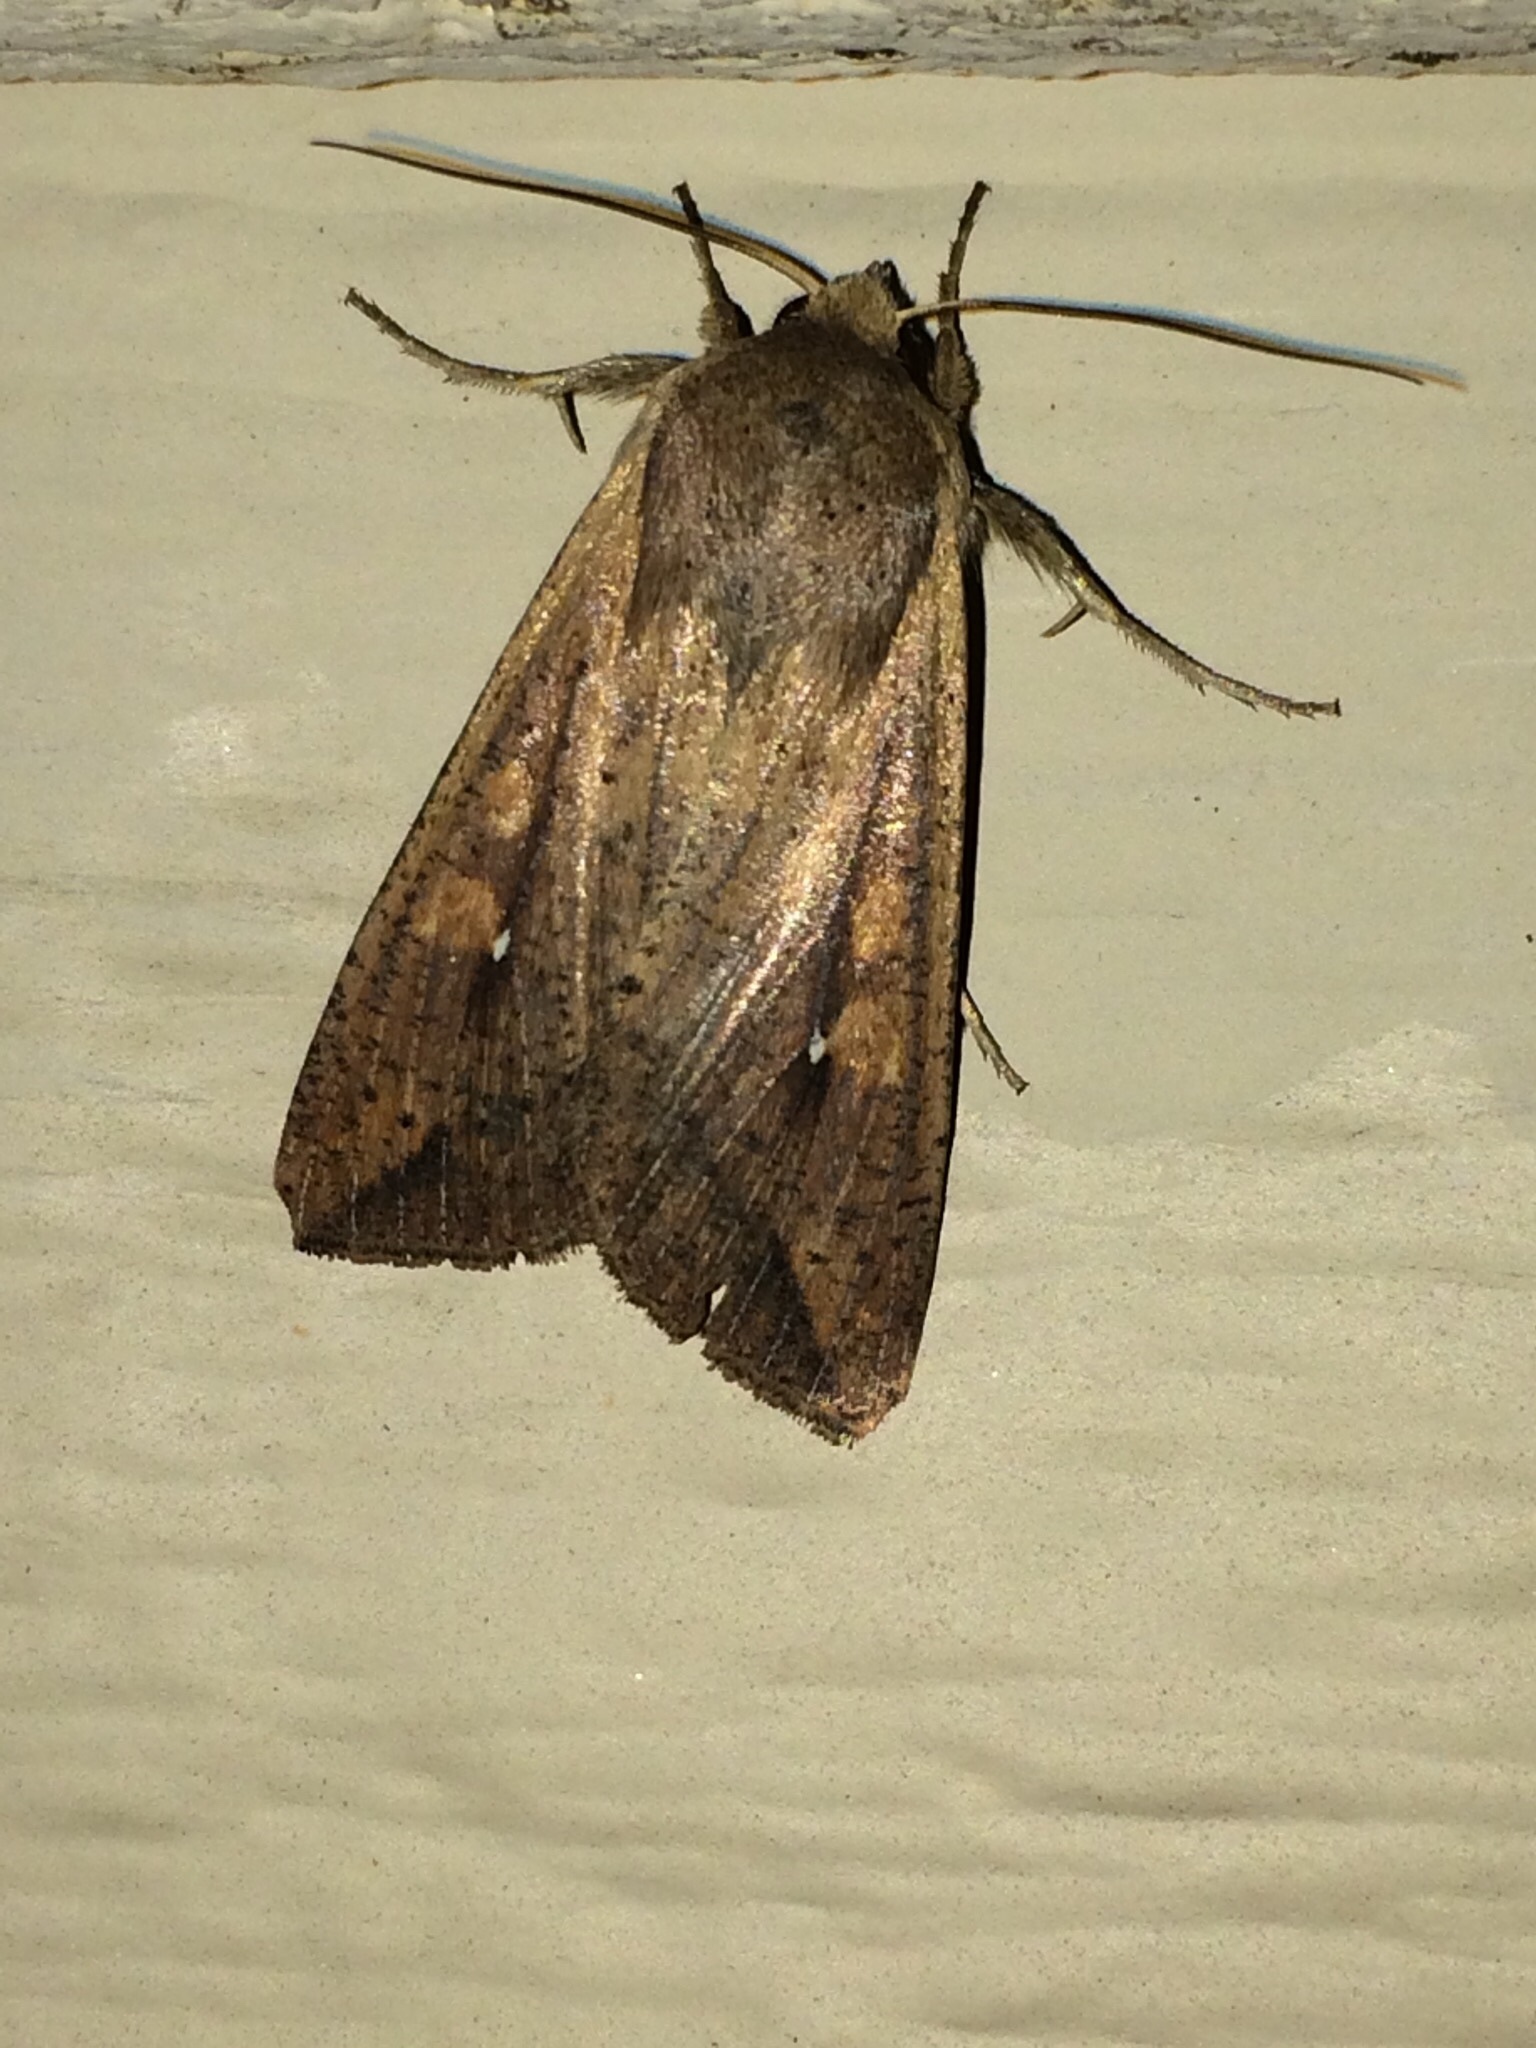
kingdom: Animalia
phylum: Arthropoda
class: Insecta
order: Lepidoptera
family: Noctuidae
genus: Mythimna
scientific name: Mythimna unipuncta
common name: White-speck
